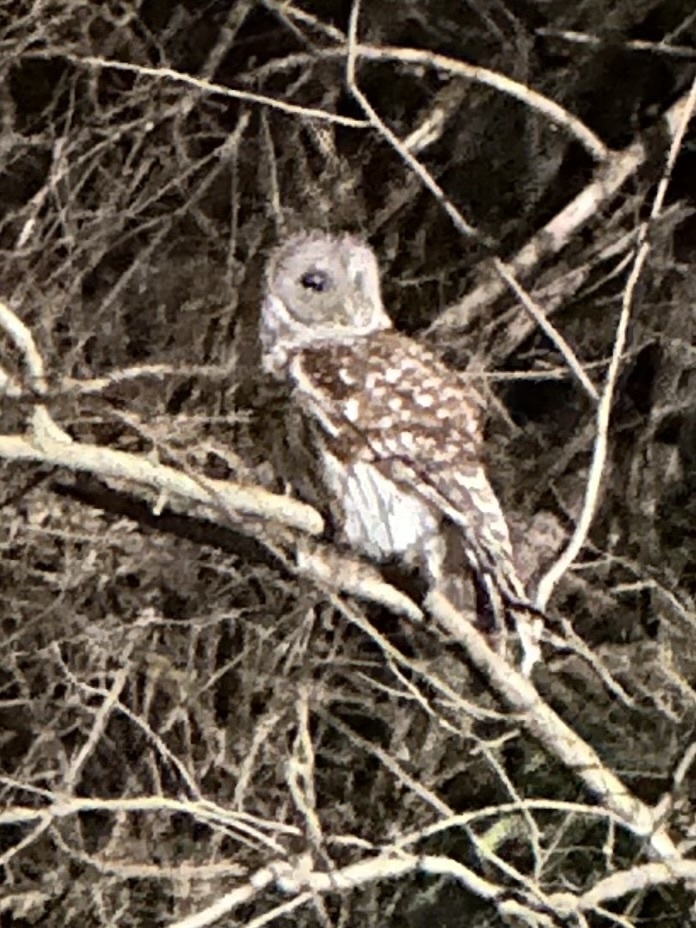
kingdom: Animalia
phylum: Chordata
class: Aves
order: Strigiformes
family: Strigidae
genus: Strix
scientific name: Strix varia
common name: Barred owl
